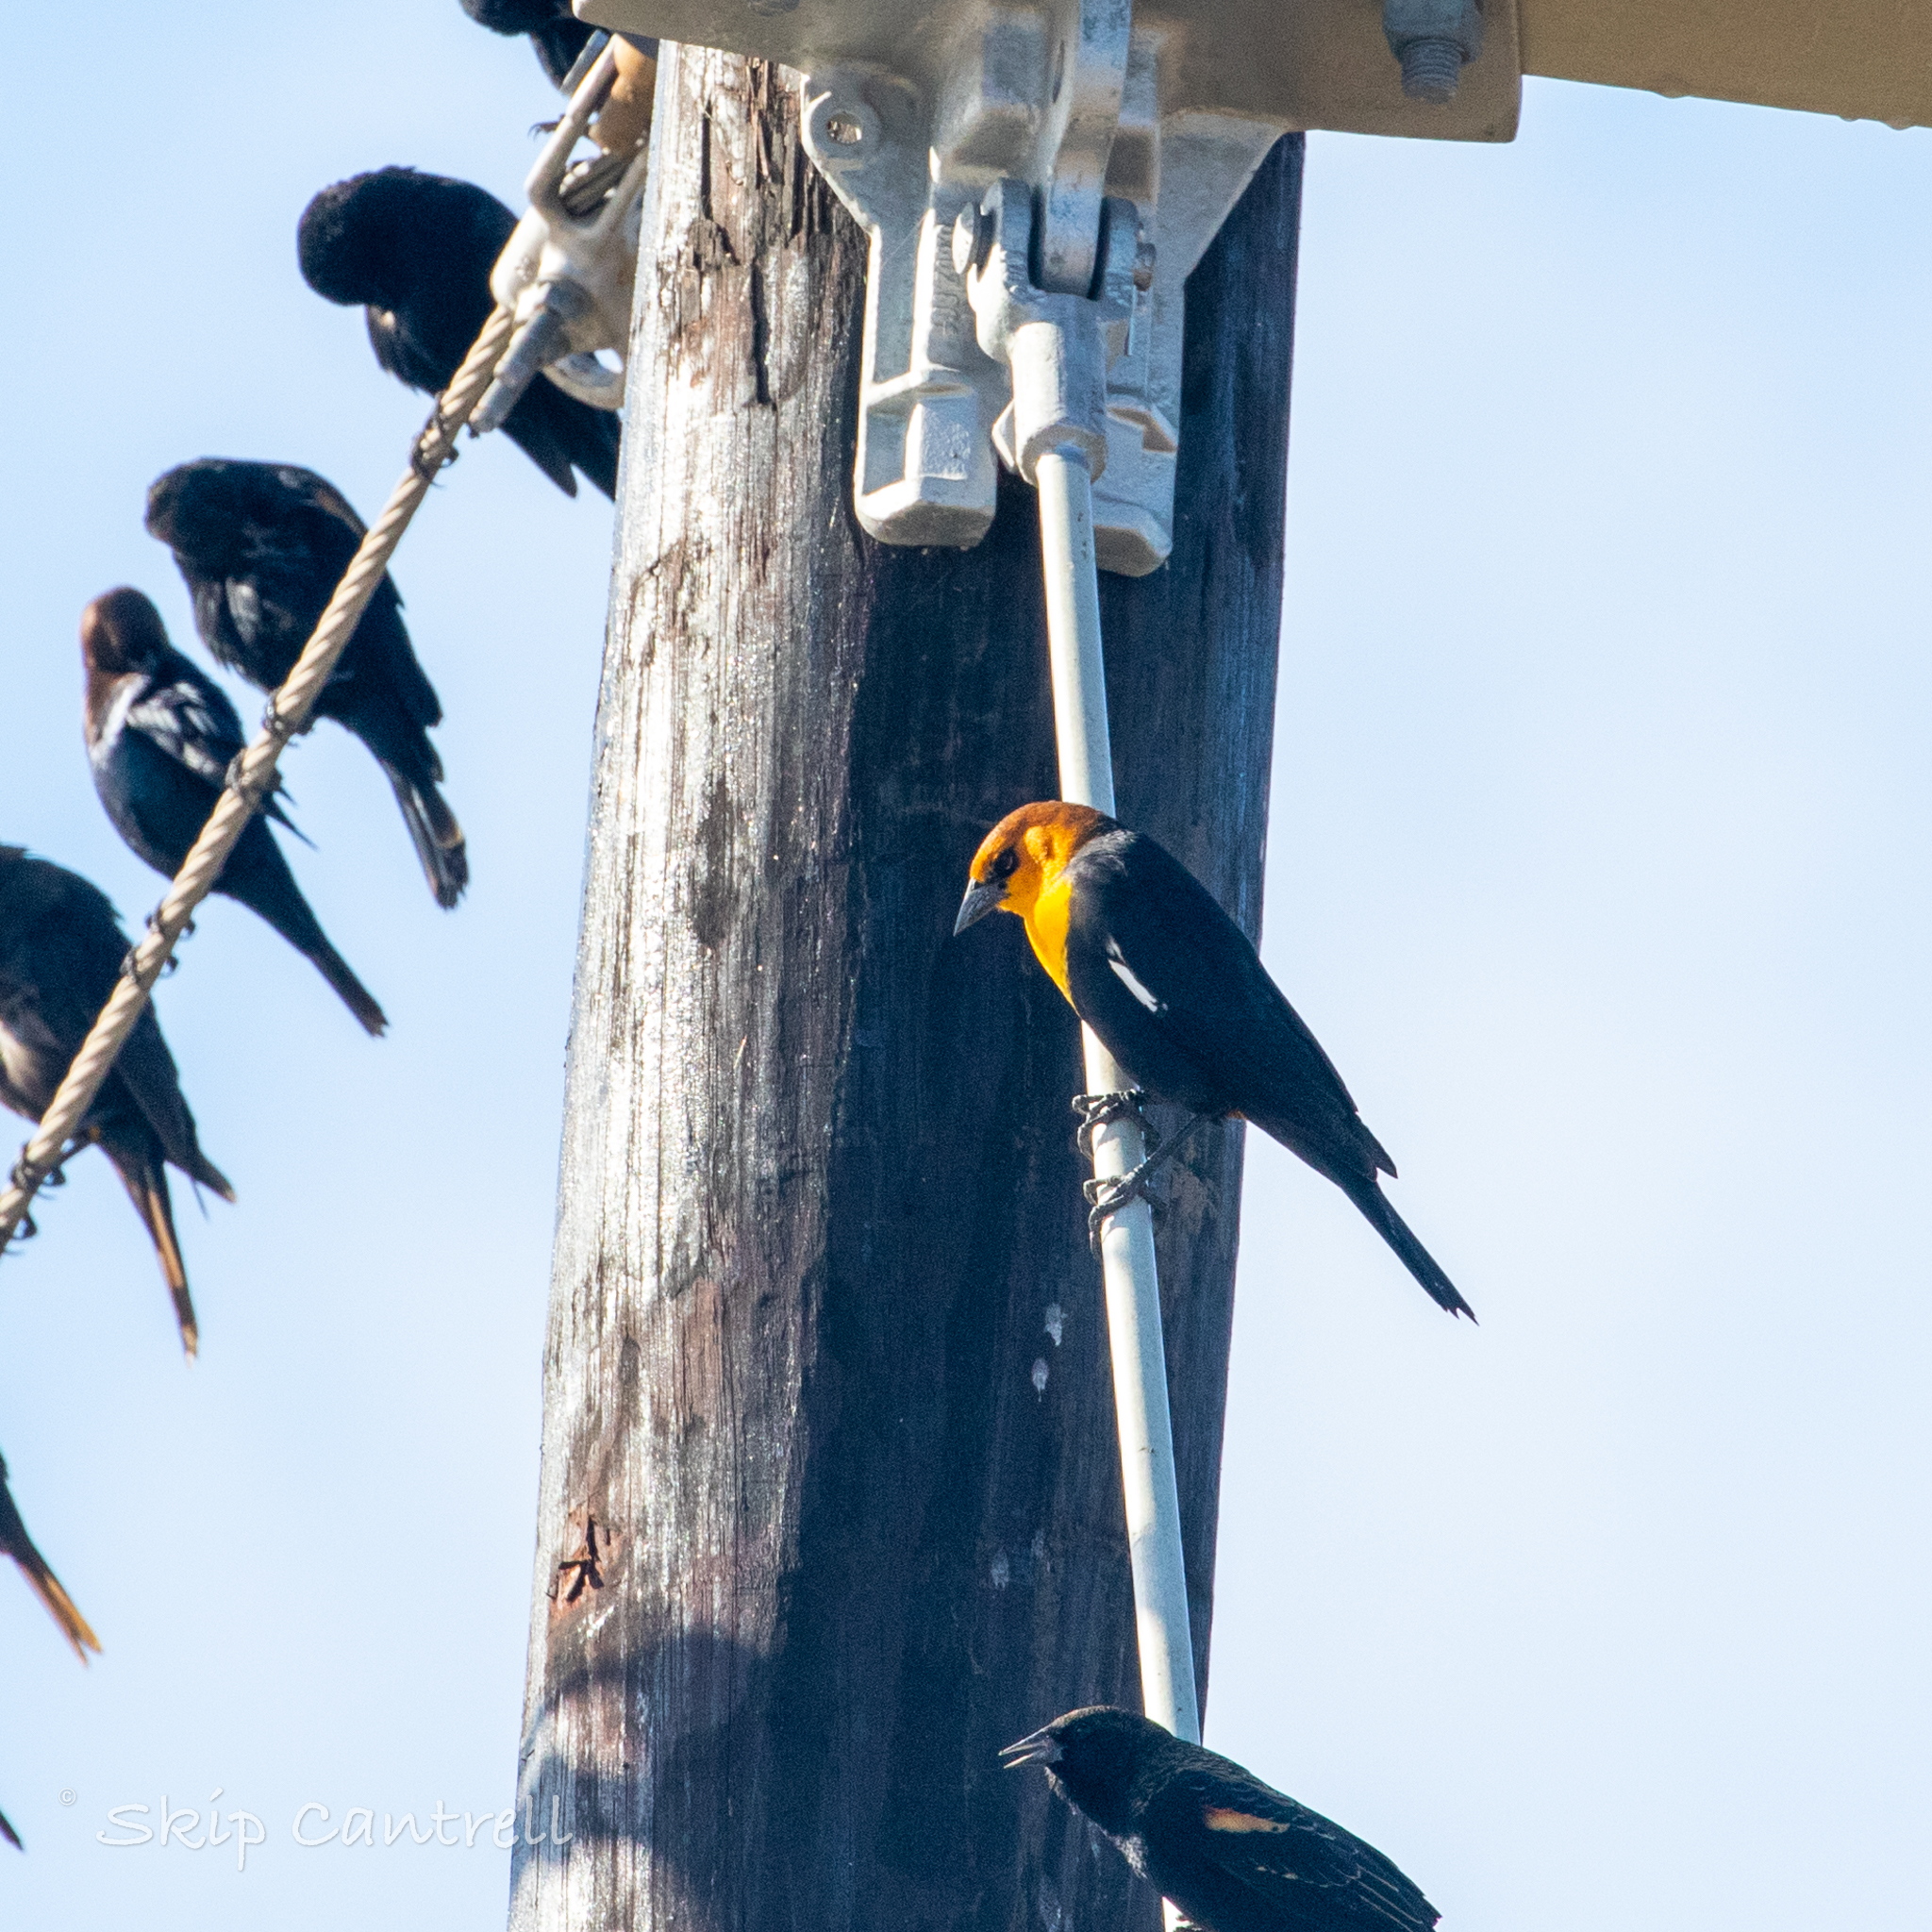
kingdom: Animalia
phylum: Chordata
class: Aves
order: Passeriformes
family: Icteridae
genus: Xanthocephalus
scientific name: Xanthocephalus xanthocephalus
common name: Yellow-headed blackbird
